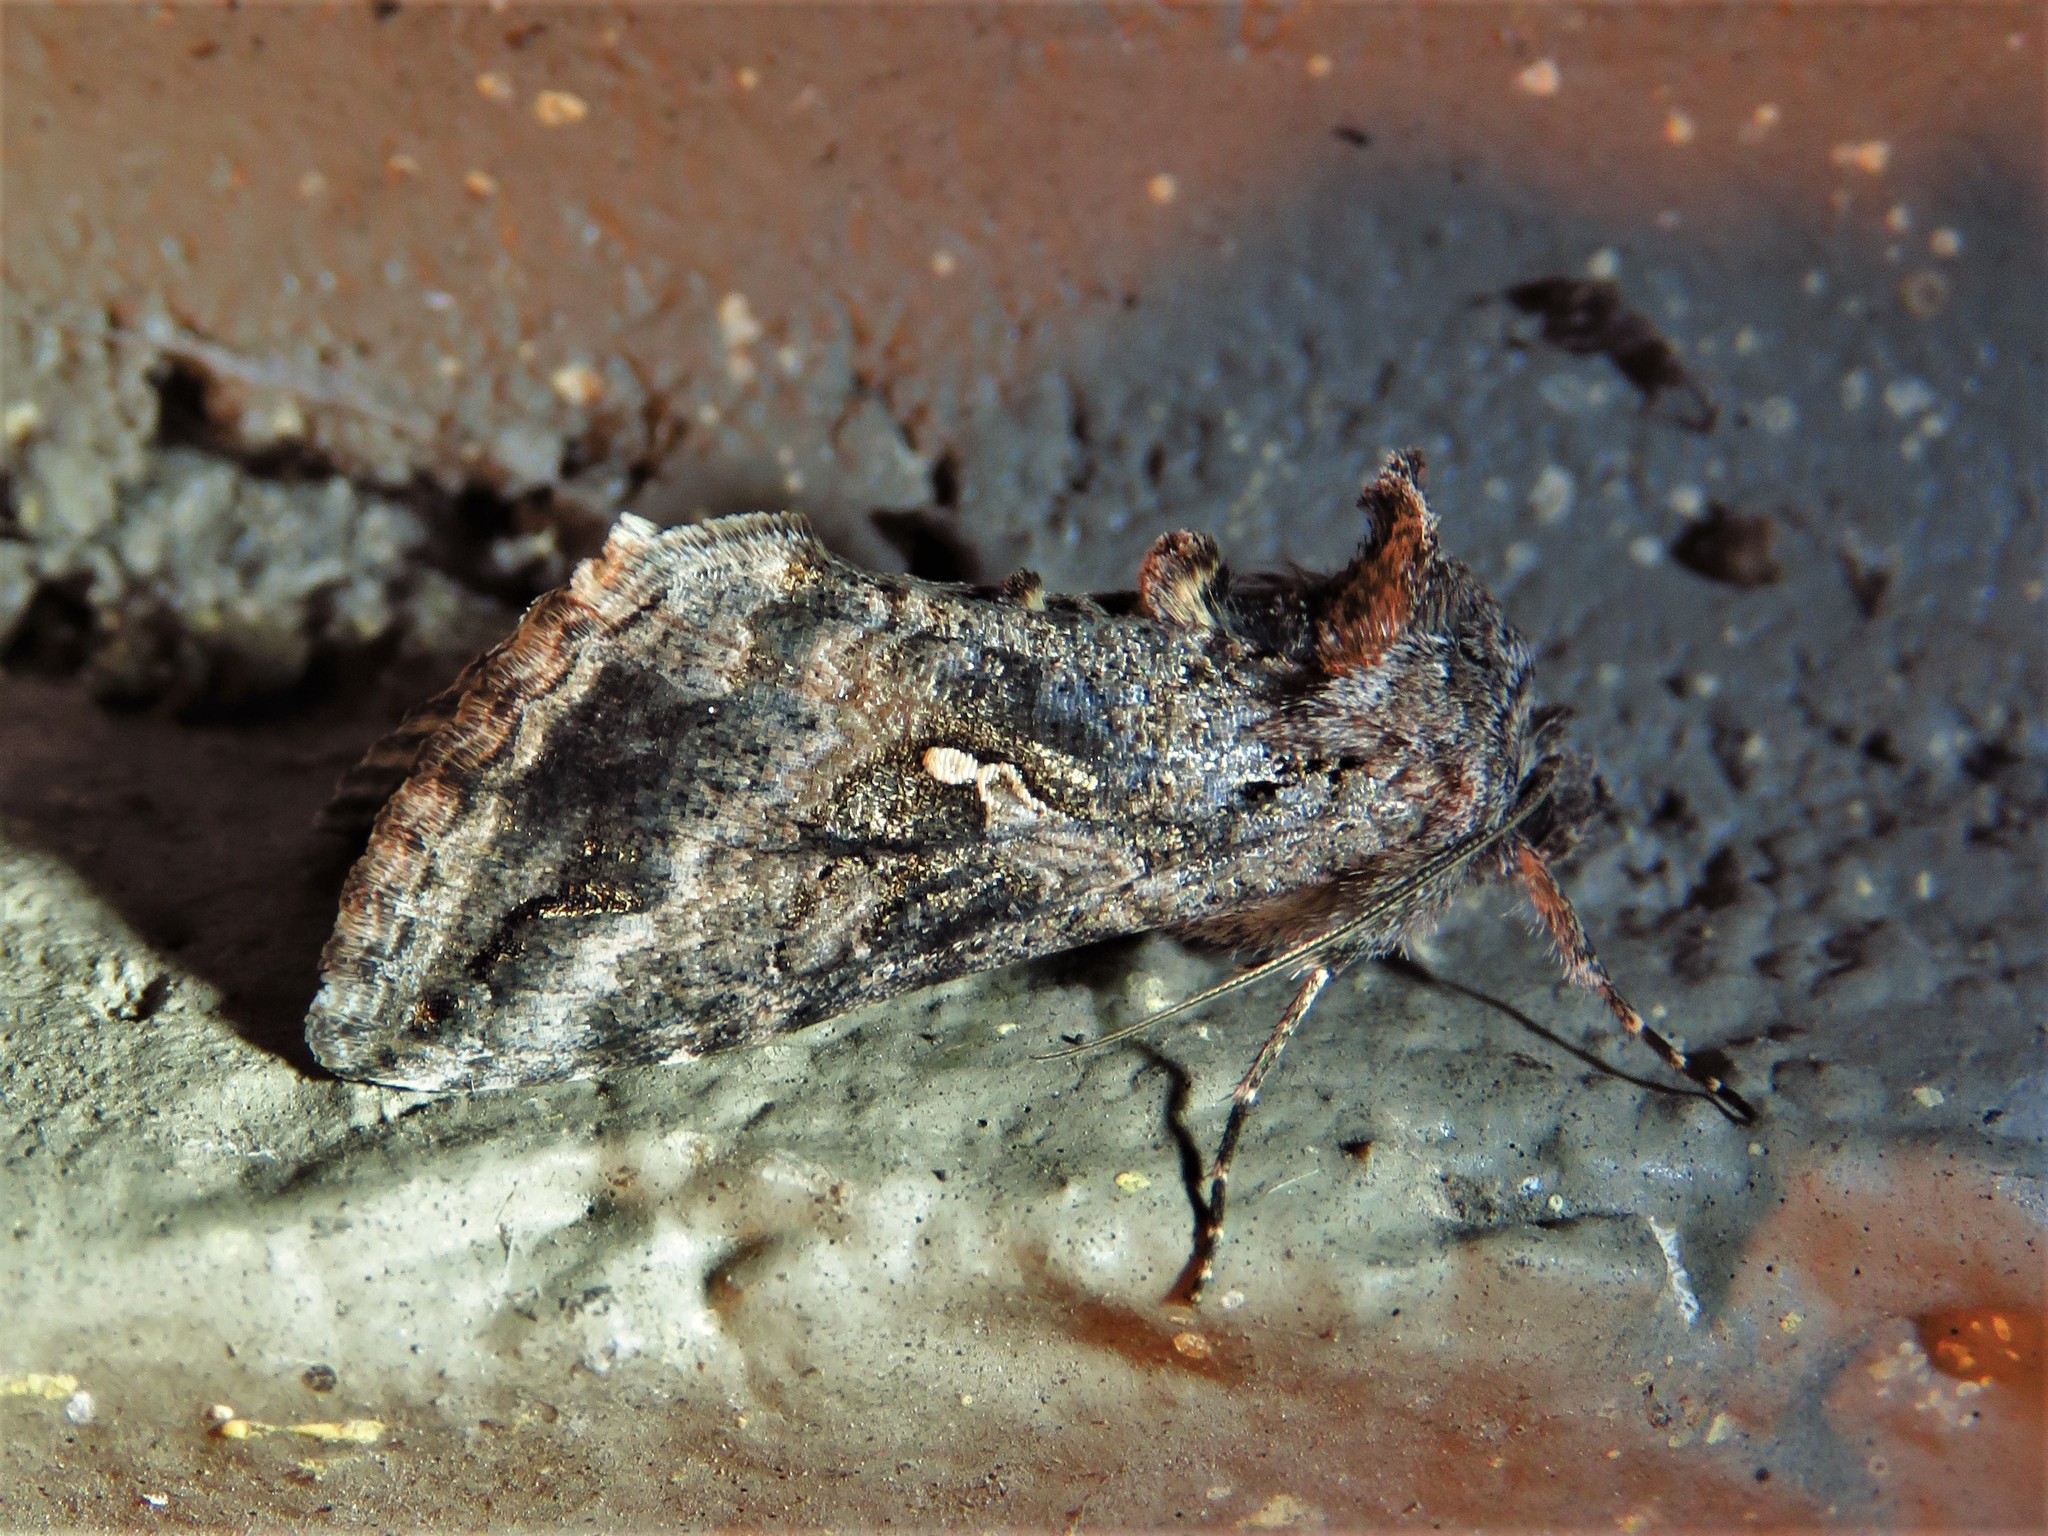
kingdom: Animalia
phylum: Arthropoda
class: Insecta
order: Lepidoptera
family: Noctuidae
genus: Rachiplusia
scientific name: Rachiplusia ou
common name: Gray looper moth
